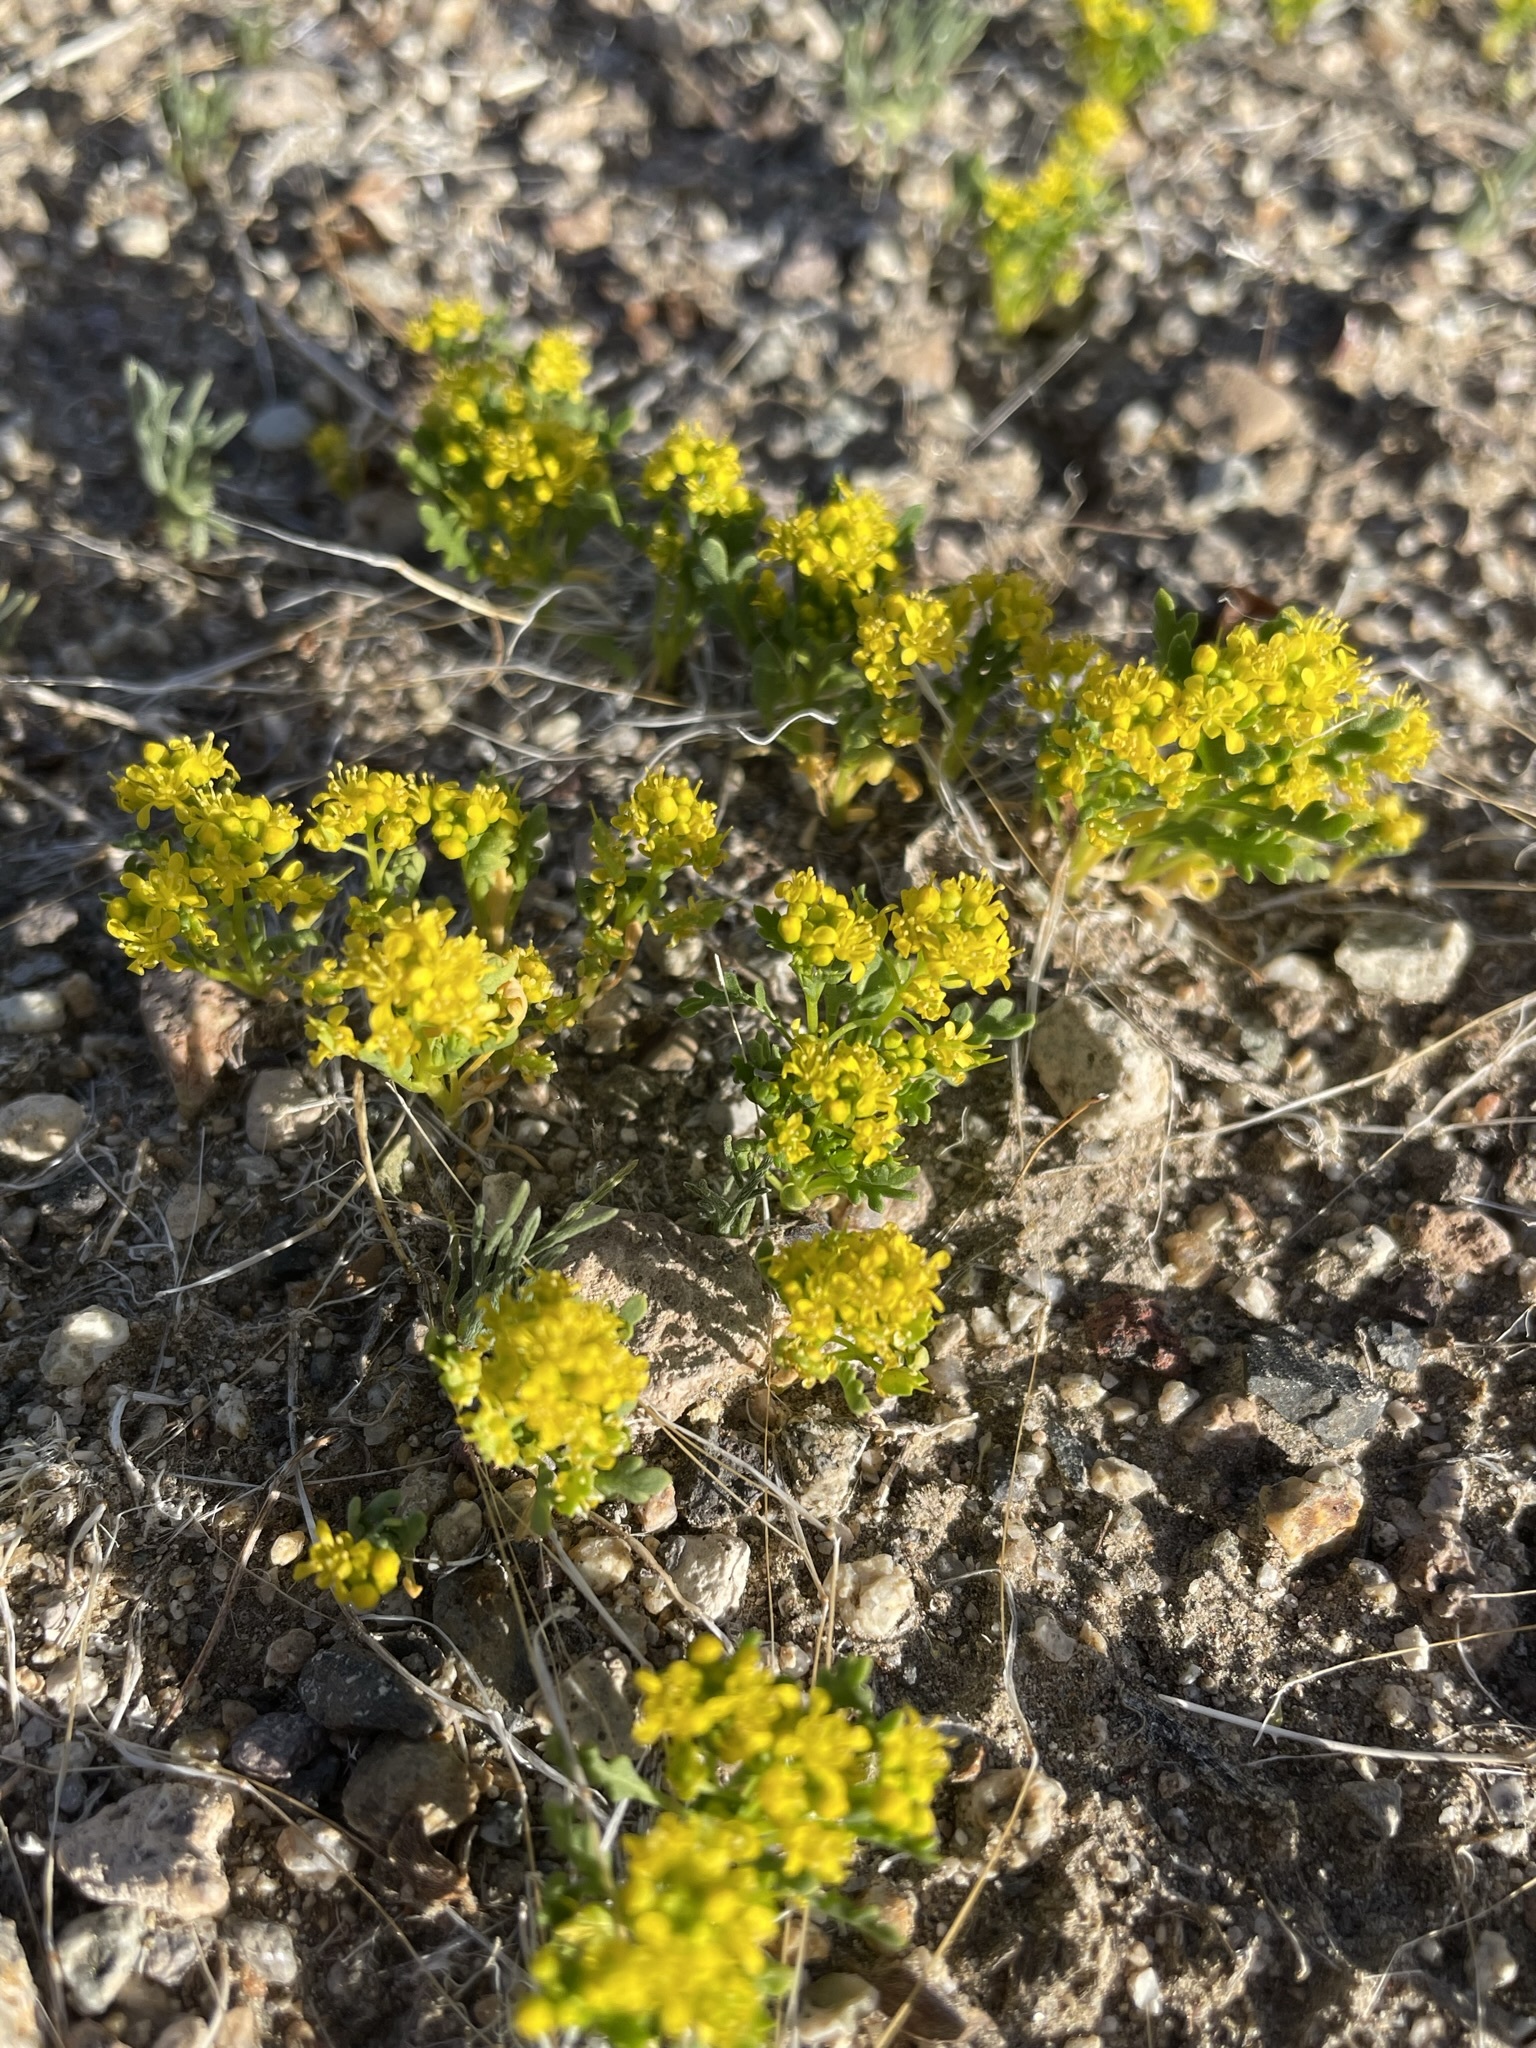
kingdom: Plantae
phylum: Tracheophyta
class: Magnoliopsida
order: Brassicales
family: Brassicaceae
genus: Lepidium
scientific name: Lepidium flavum
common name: Yellow pepperwort
